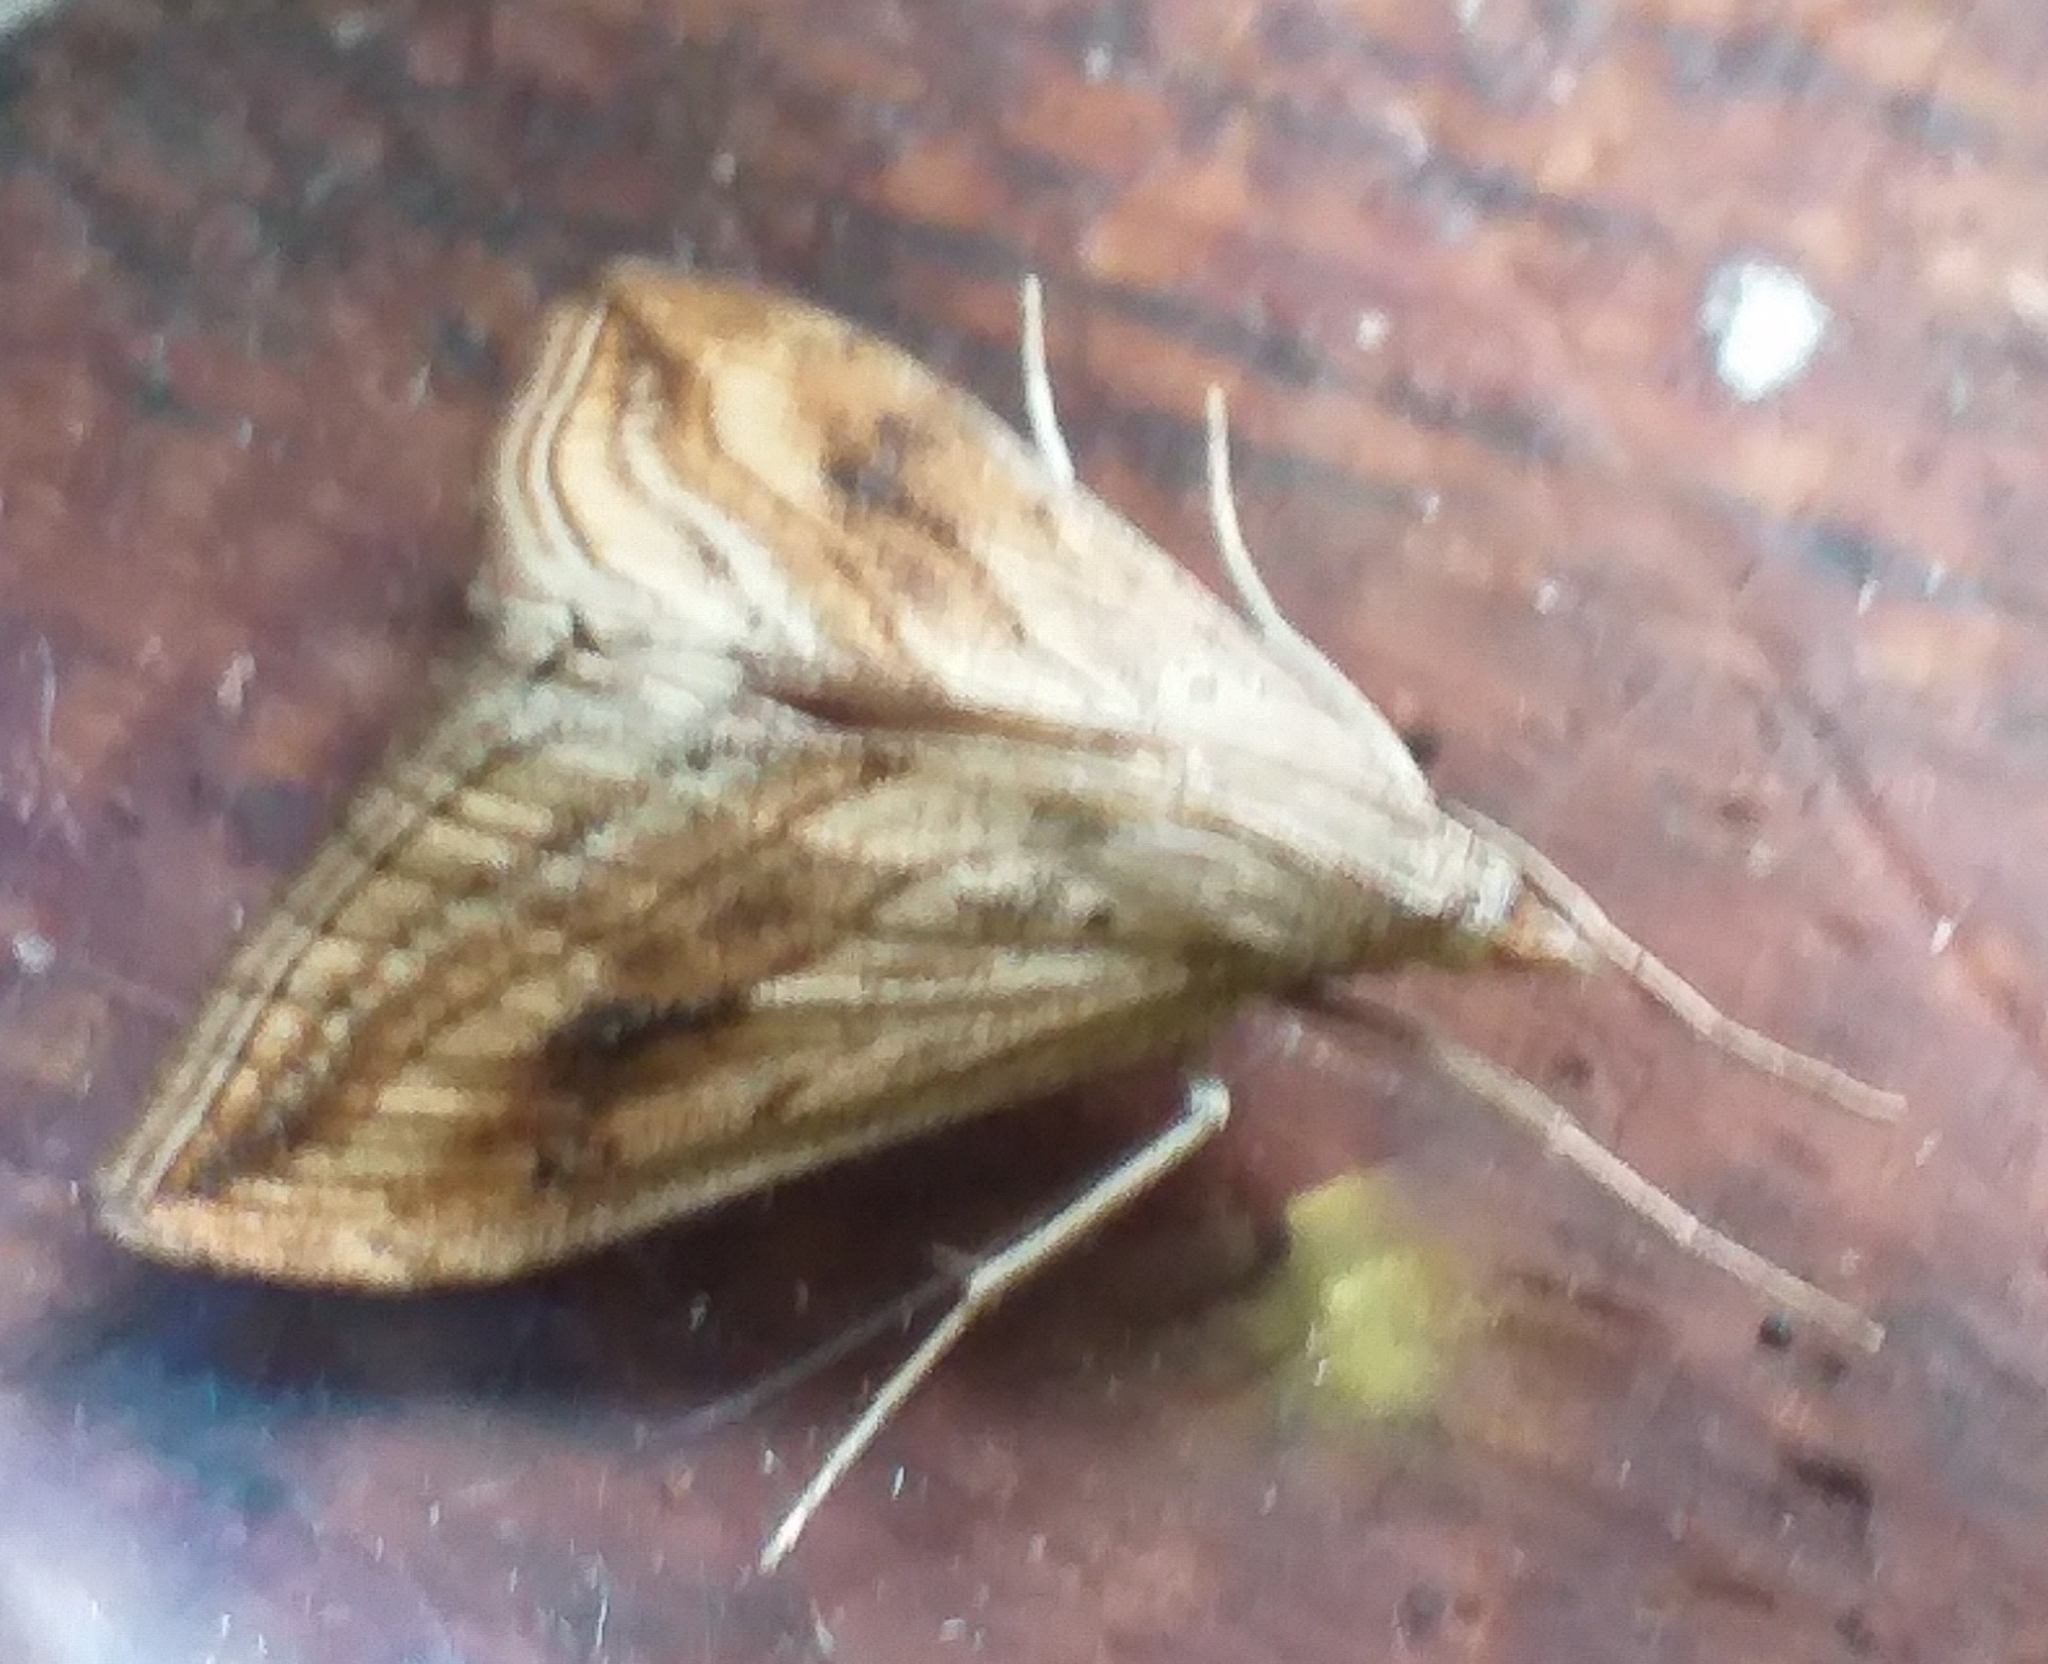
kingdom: Animalia
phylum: Arthropoda
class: Insecta
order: Lepidoptera
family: Crambidae
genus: Evergestis
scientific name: Evergestis forficalis
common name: Garden pebble
